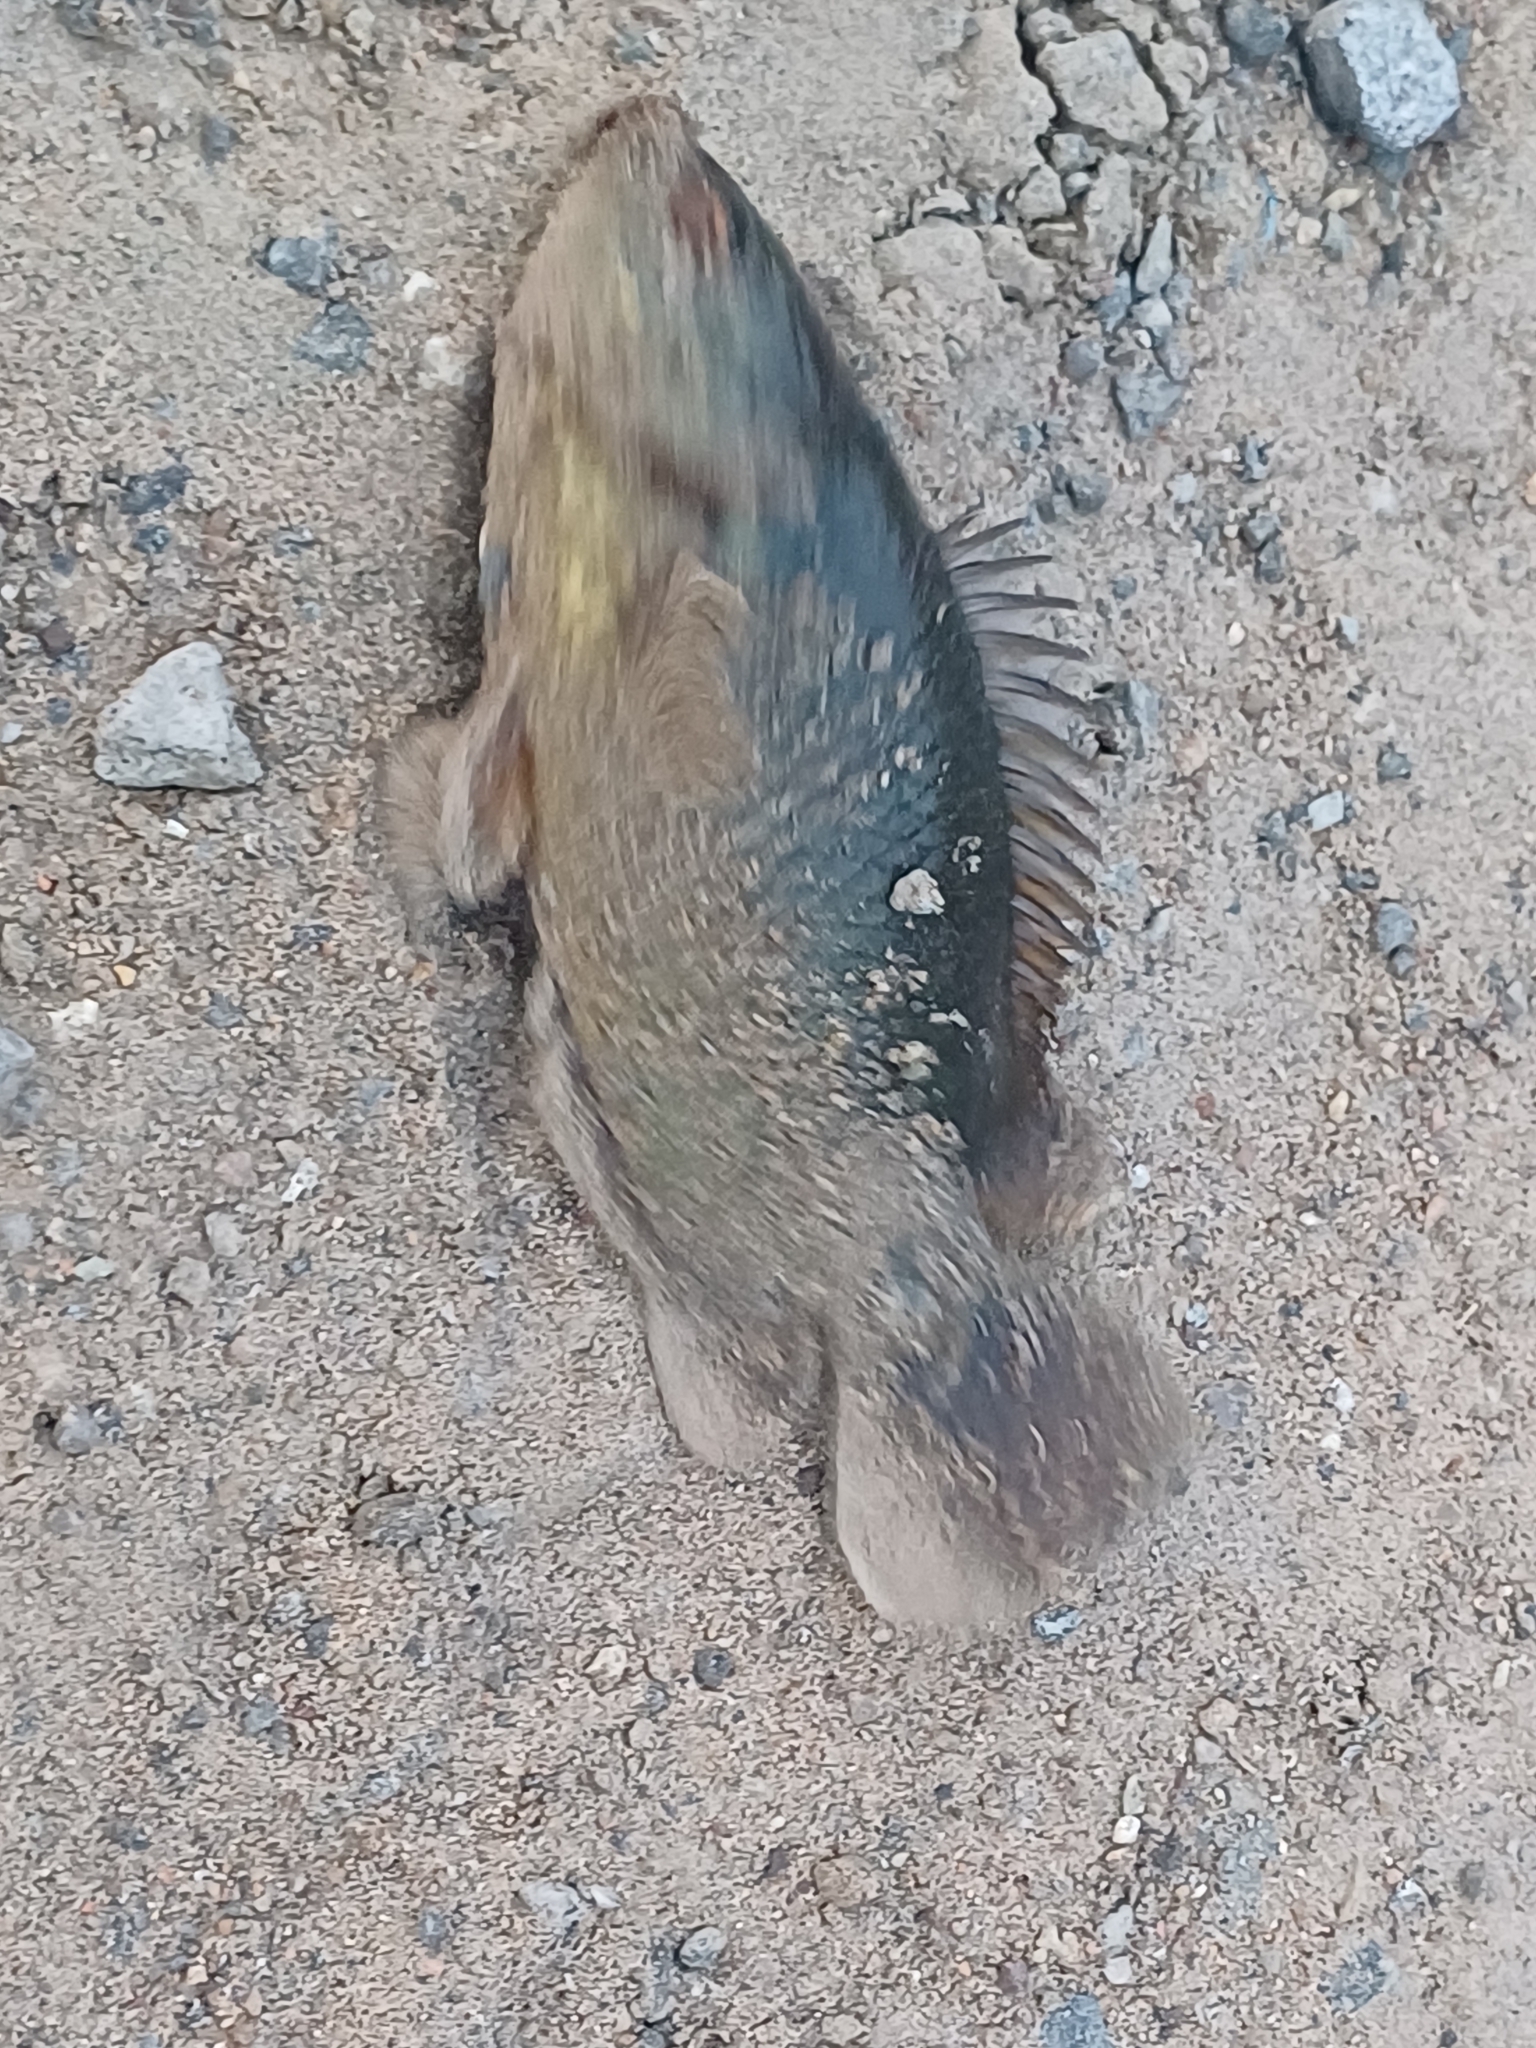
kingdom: Animalia
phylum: Chordata
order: Perciformes
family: Anabantidae
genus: Anabas
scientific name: Anabas testudineus
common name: Climbing perch
